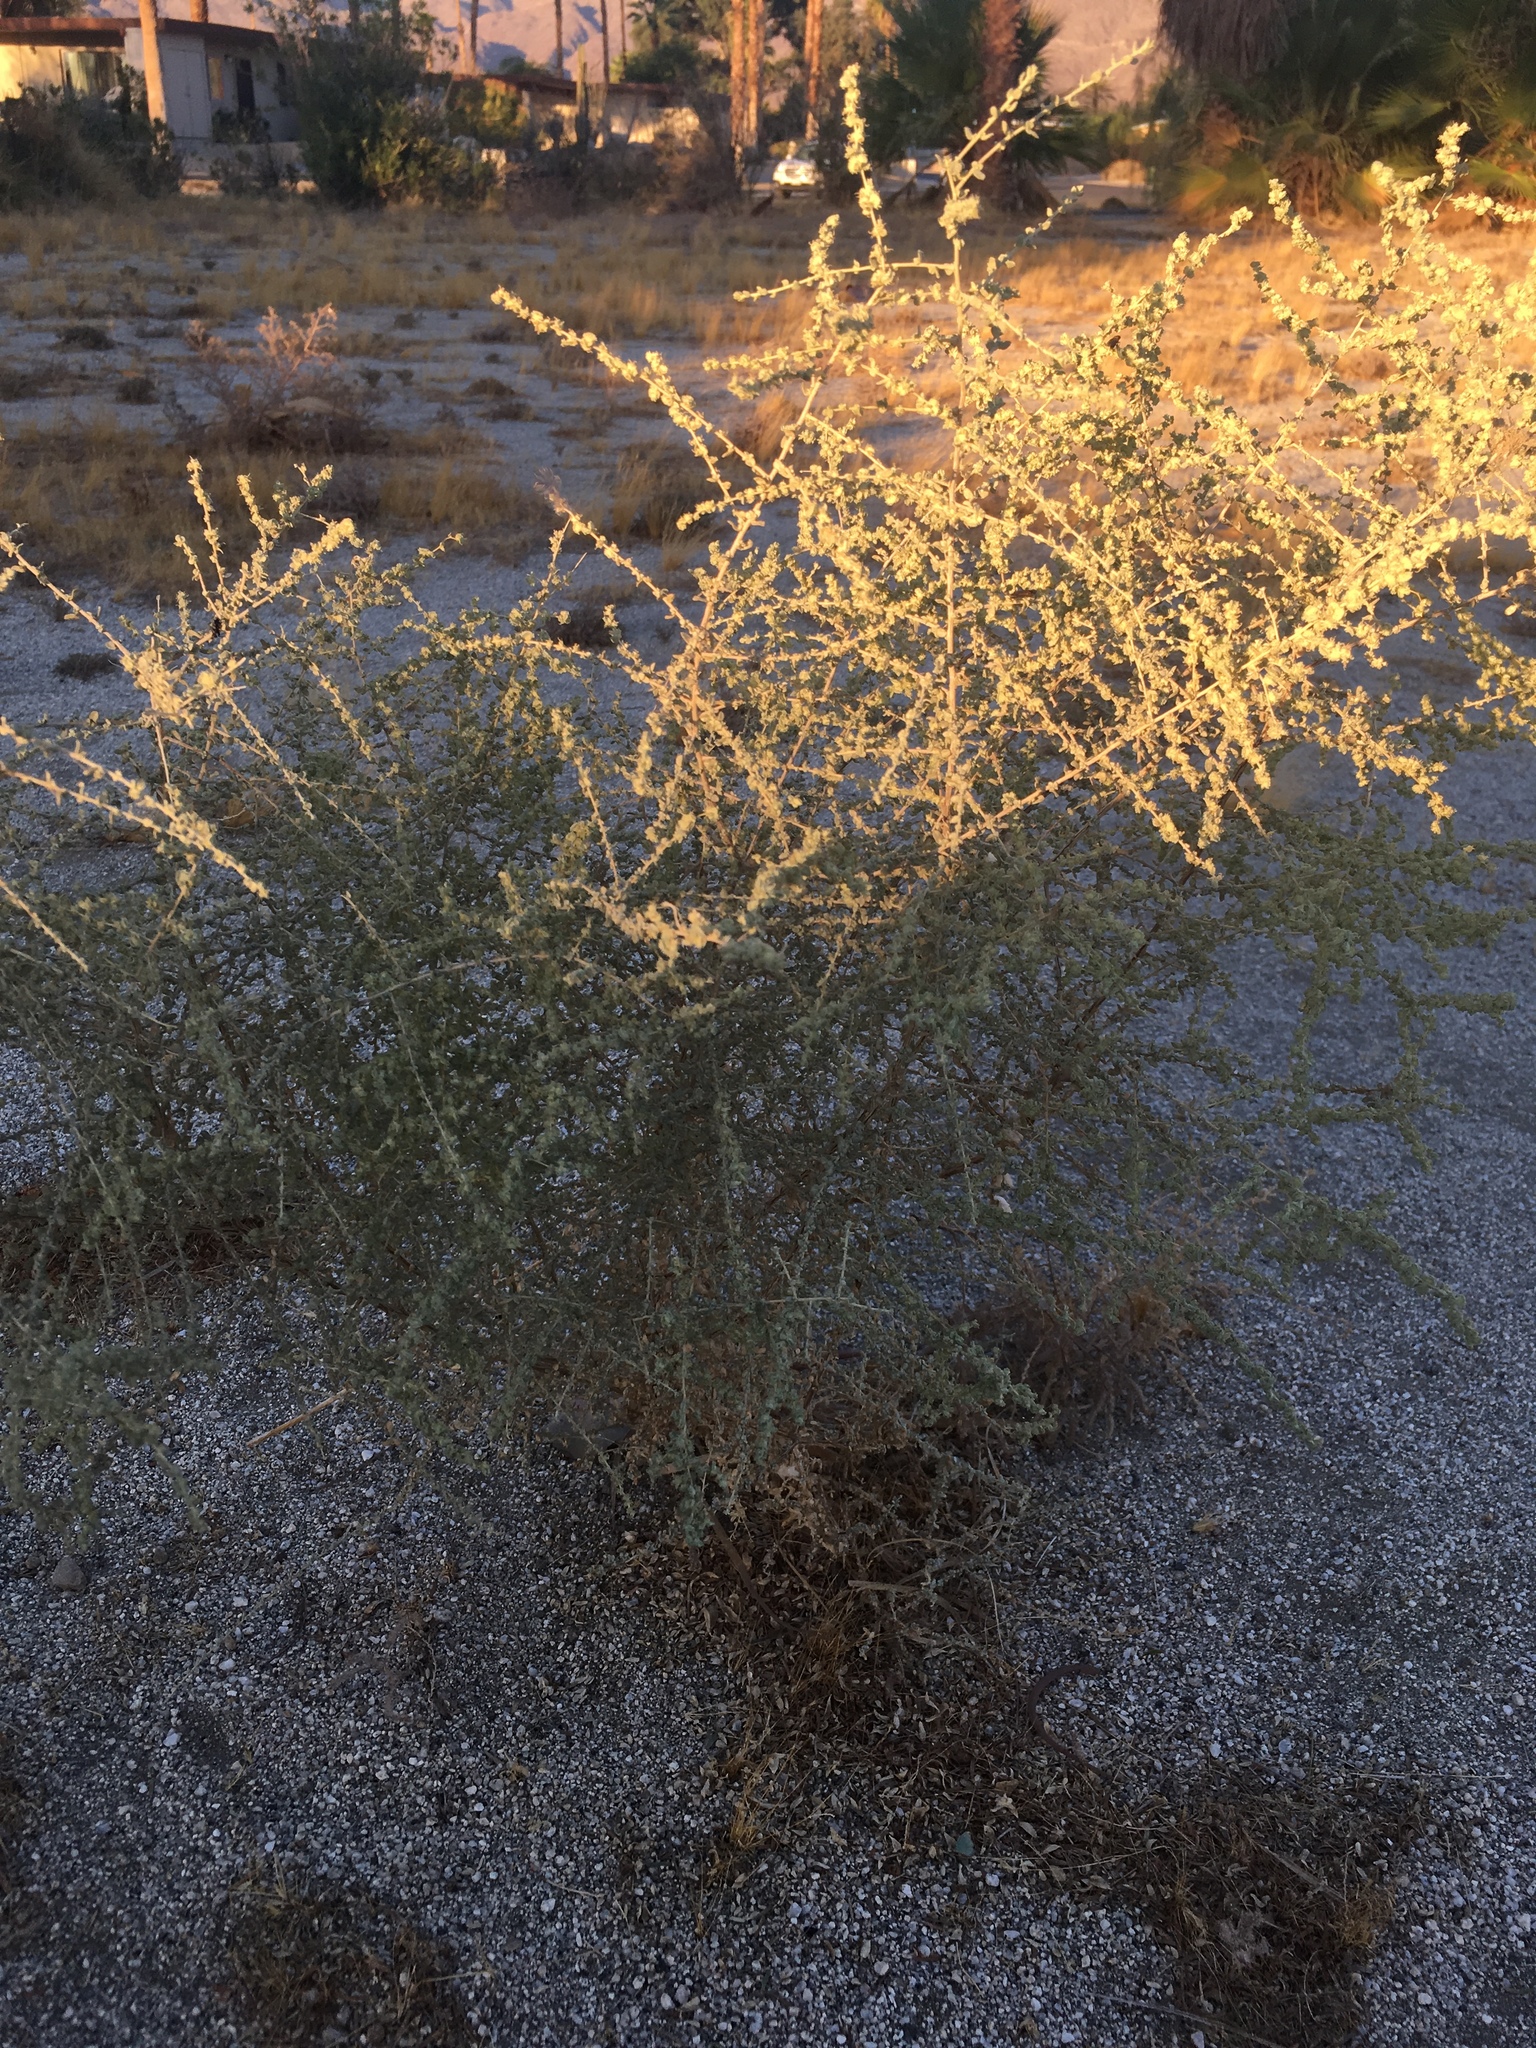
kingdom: Plantae
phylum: Tracheophyta
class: Magnoliopsida
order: Caryophyllales
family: Amaranthaceae
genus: Atriplex
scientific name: Atriplex polycarpa
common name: Desert saltbush
